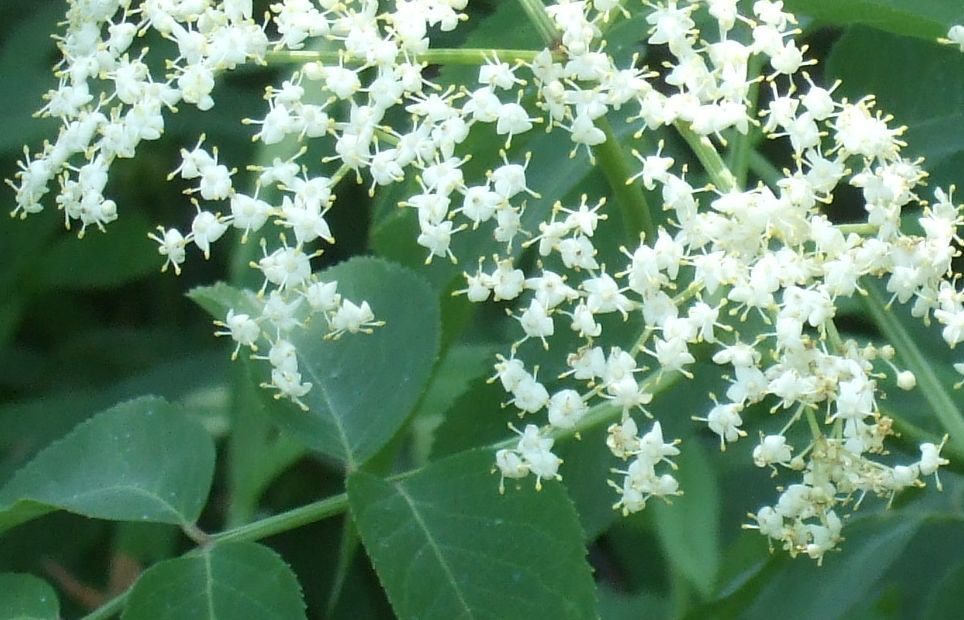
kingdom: Plantae
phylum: Tracheophyta
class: Magnoliopsida
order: Dipsacales
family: Viburnaceae
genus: Sambucus
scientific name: Sambucus canadensis
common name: American elder
